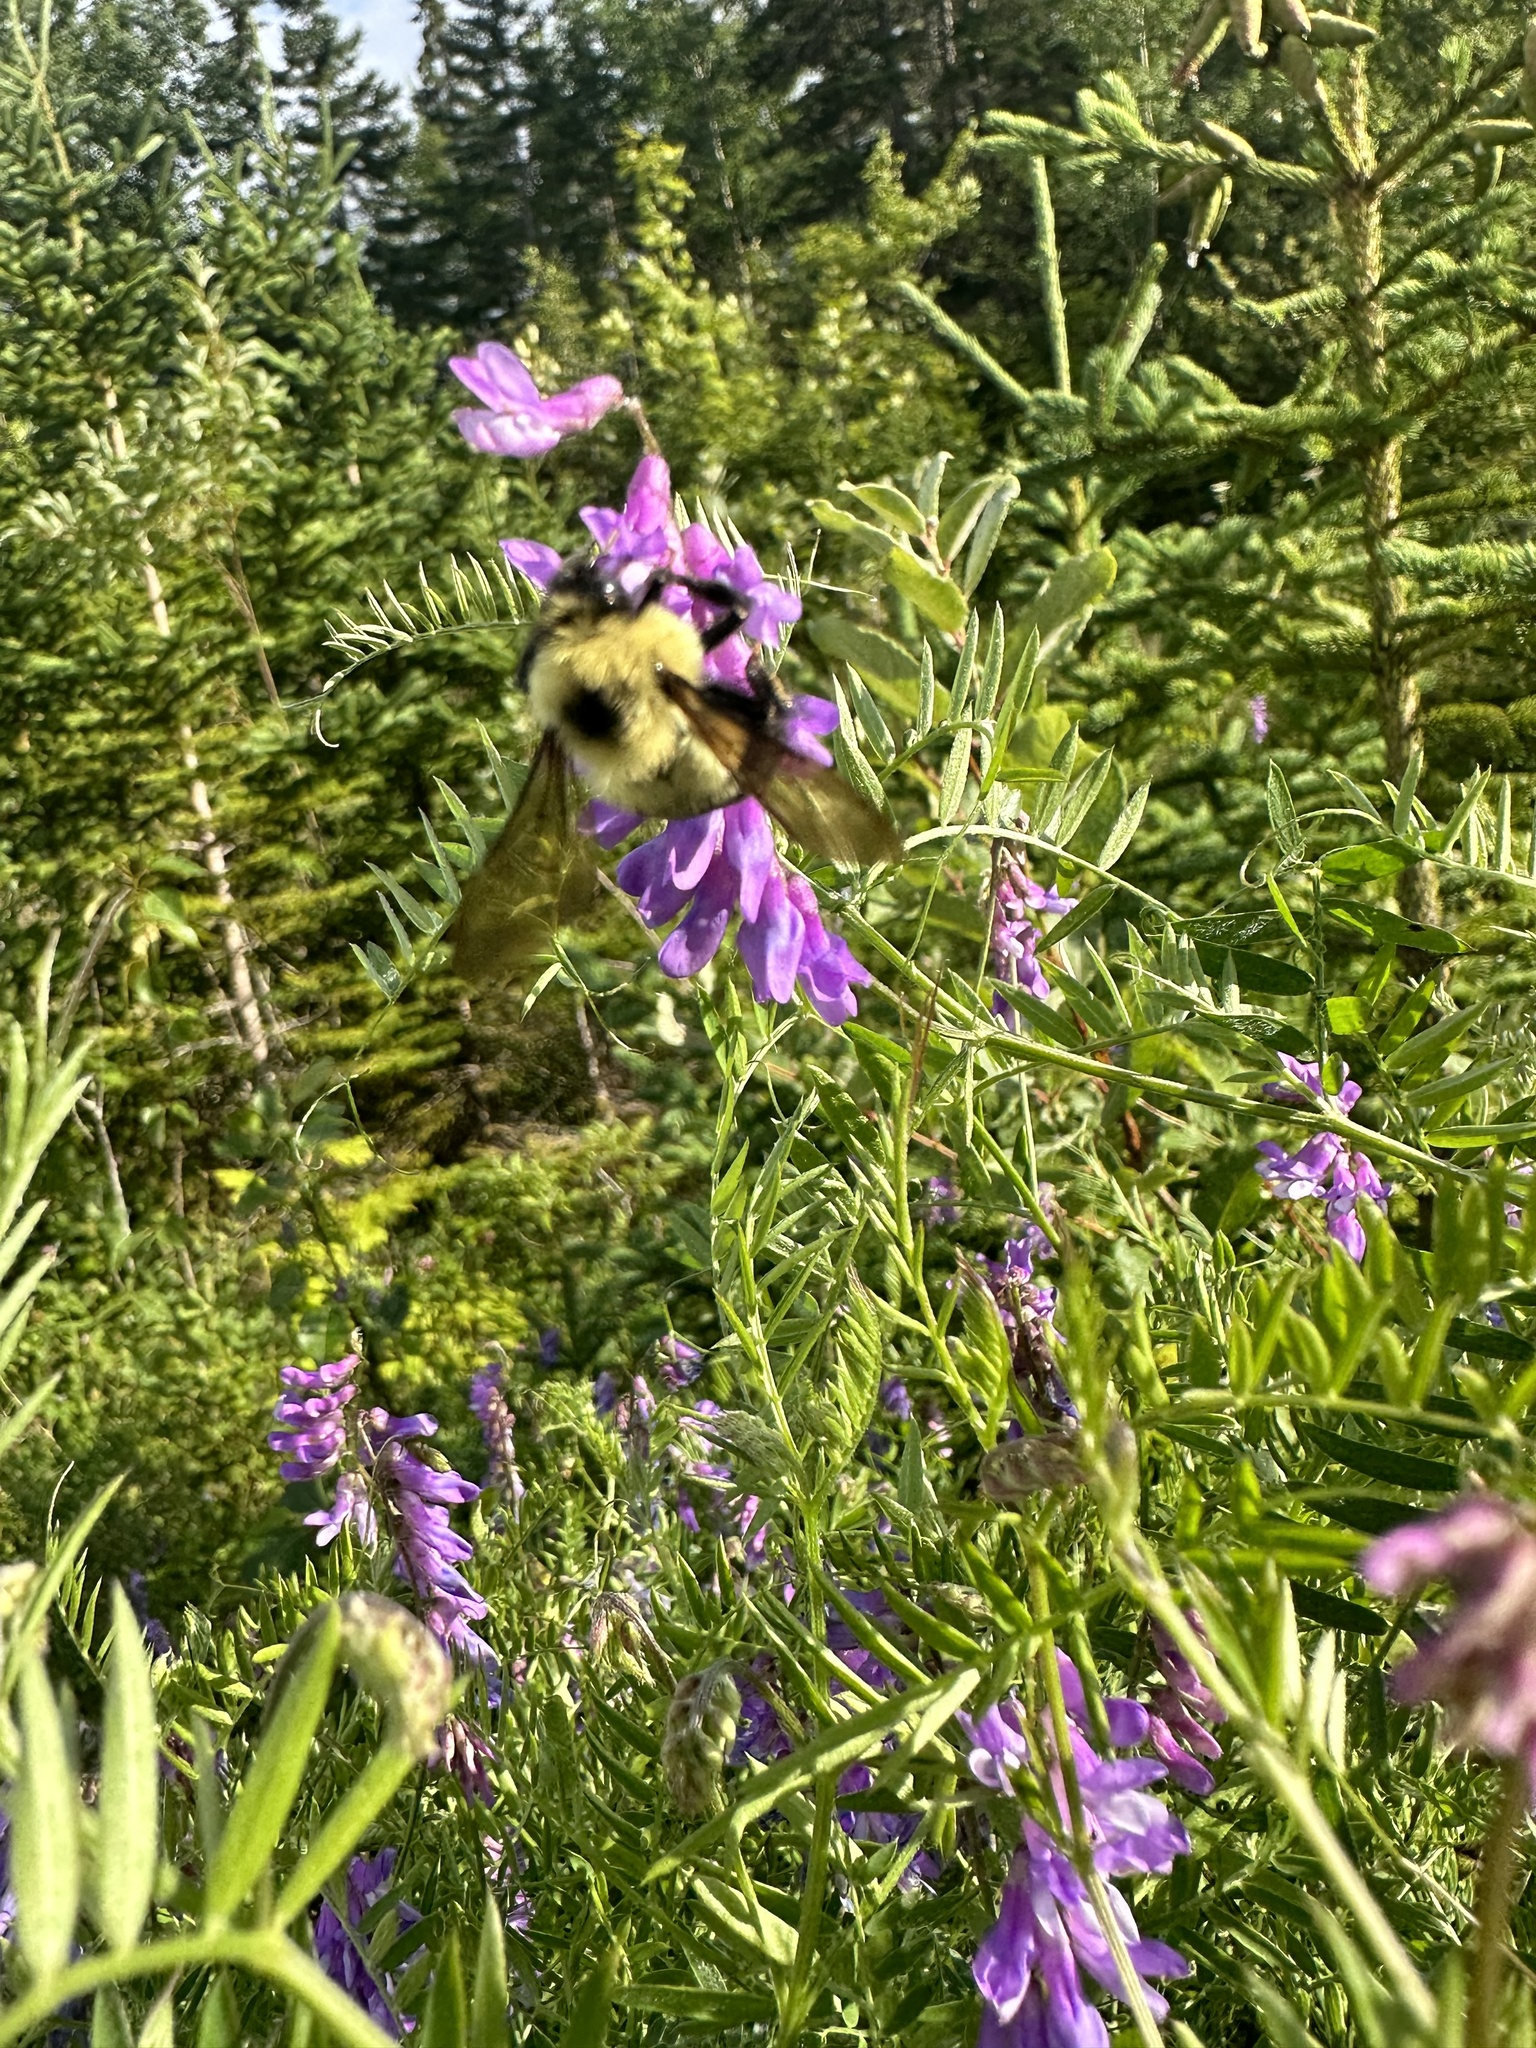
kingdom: Animalia
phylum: Arthropoda
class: Insecta
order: Hymenoptera
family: Apidae
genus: Bombus
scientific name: Bombus bimaculatus
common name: Two-spotted bumble bee
